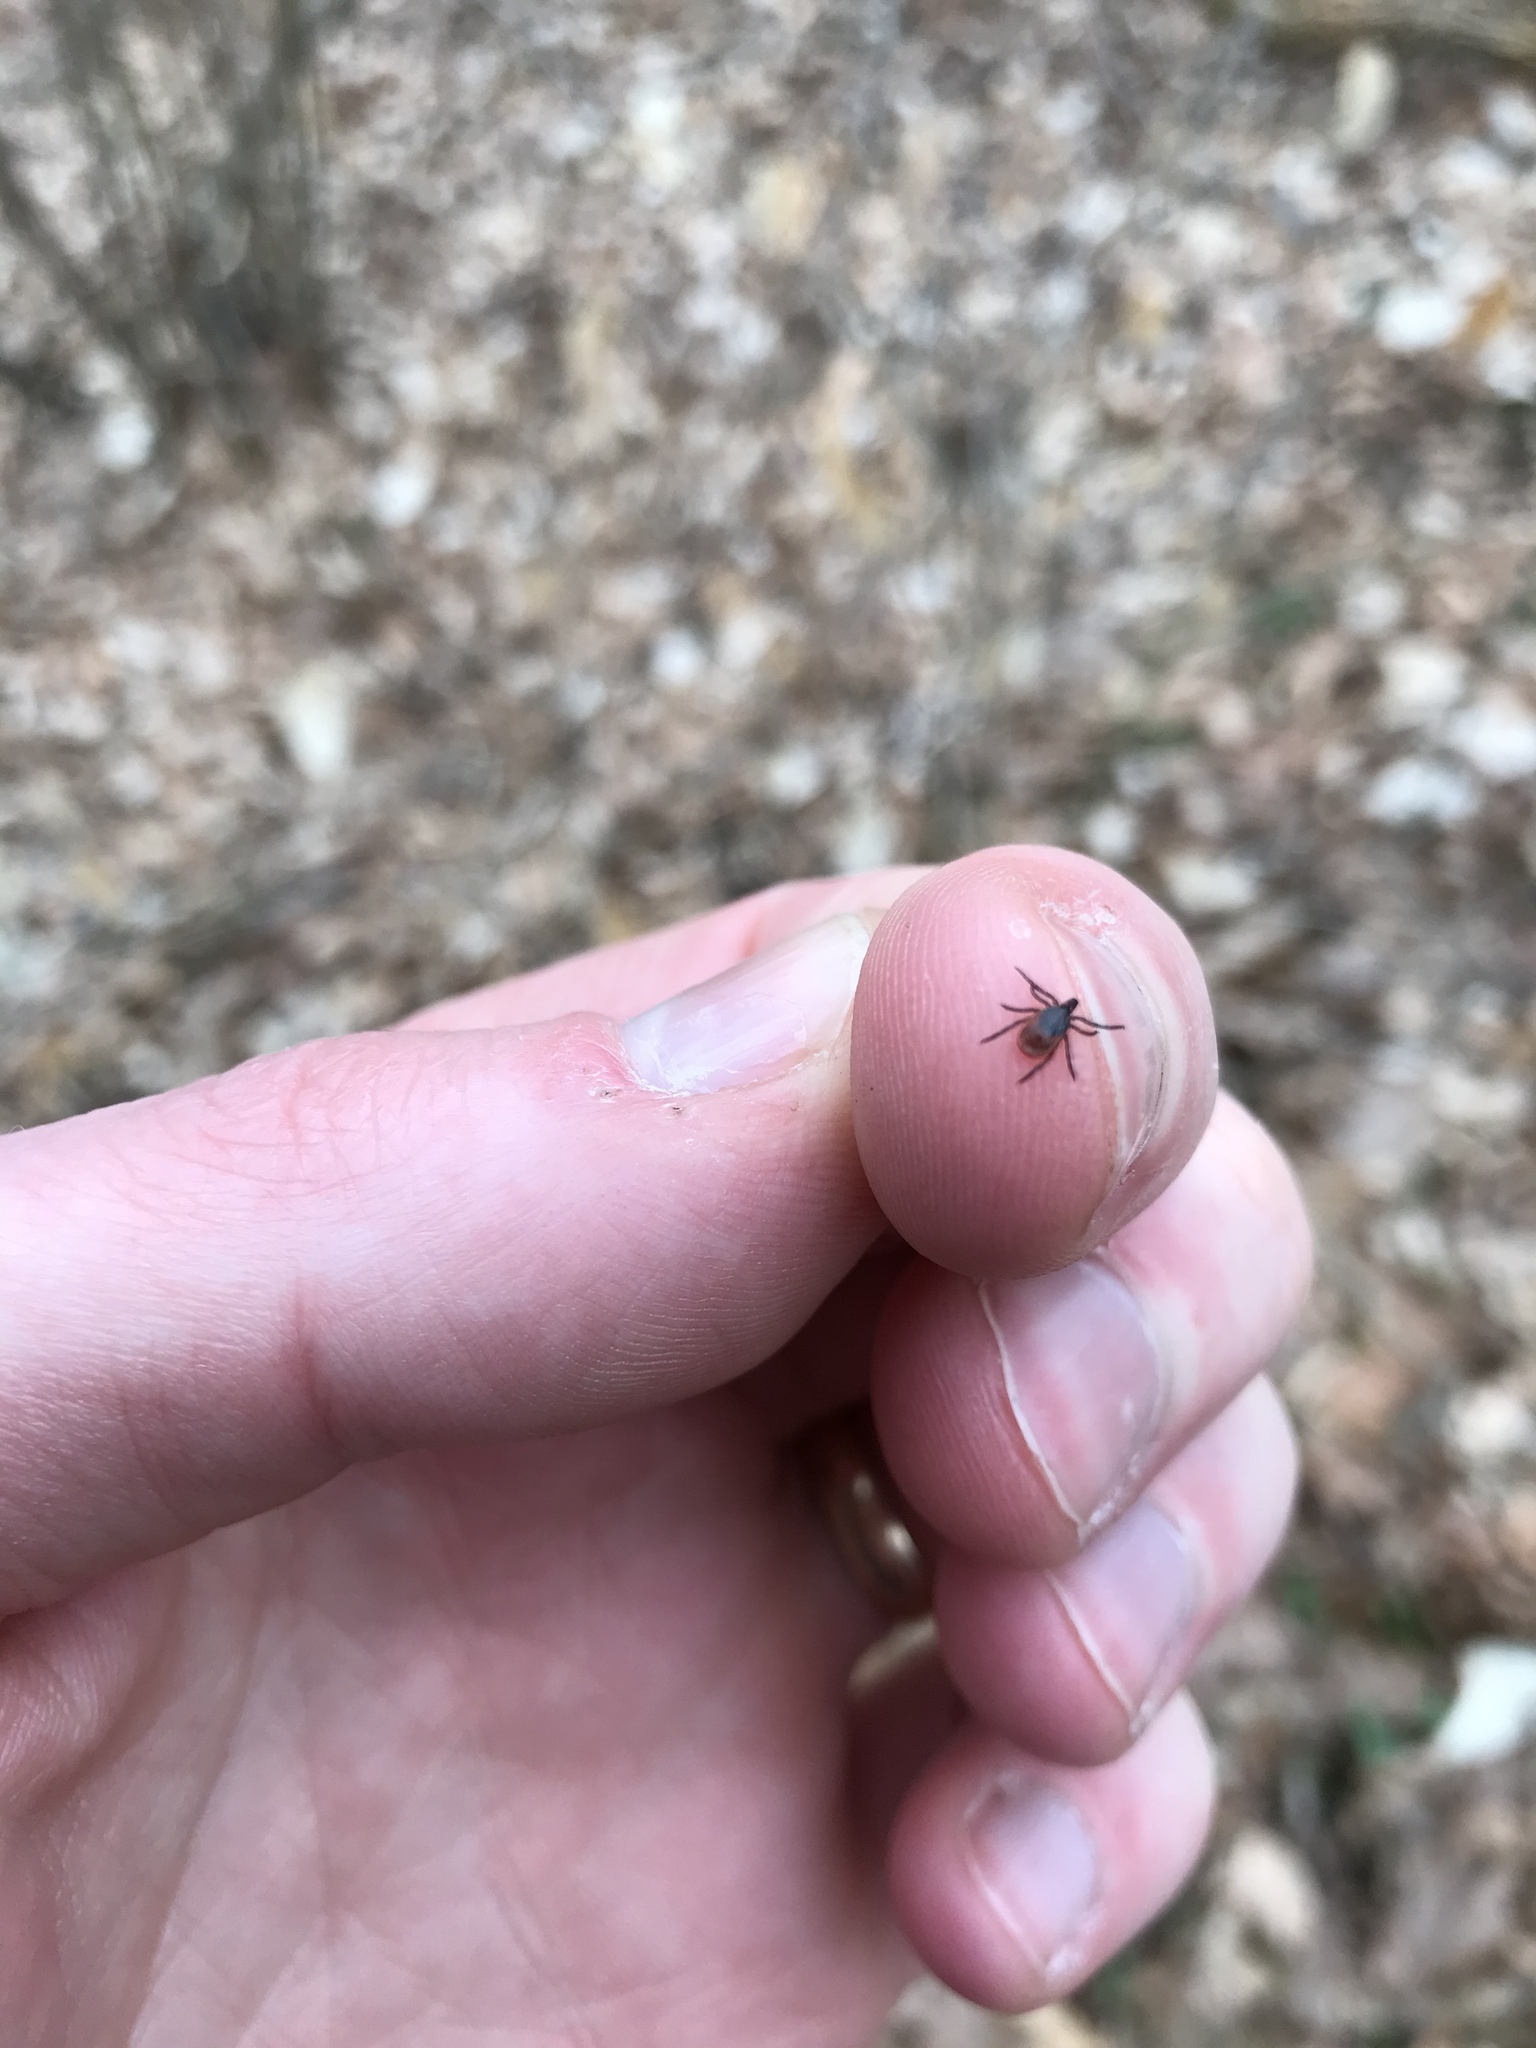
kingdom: Animalia
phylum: Arthropoda
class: Arachnida
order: Ixodida
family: Ixodidae
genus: Ixodes
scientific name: Ixodes scapularis
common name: Black legged tick
